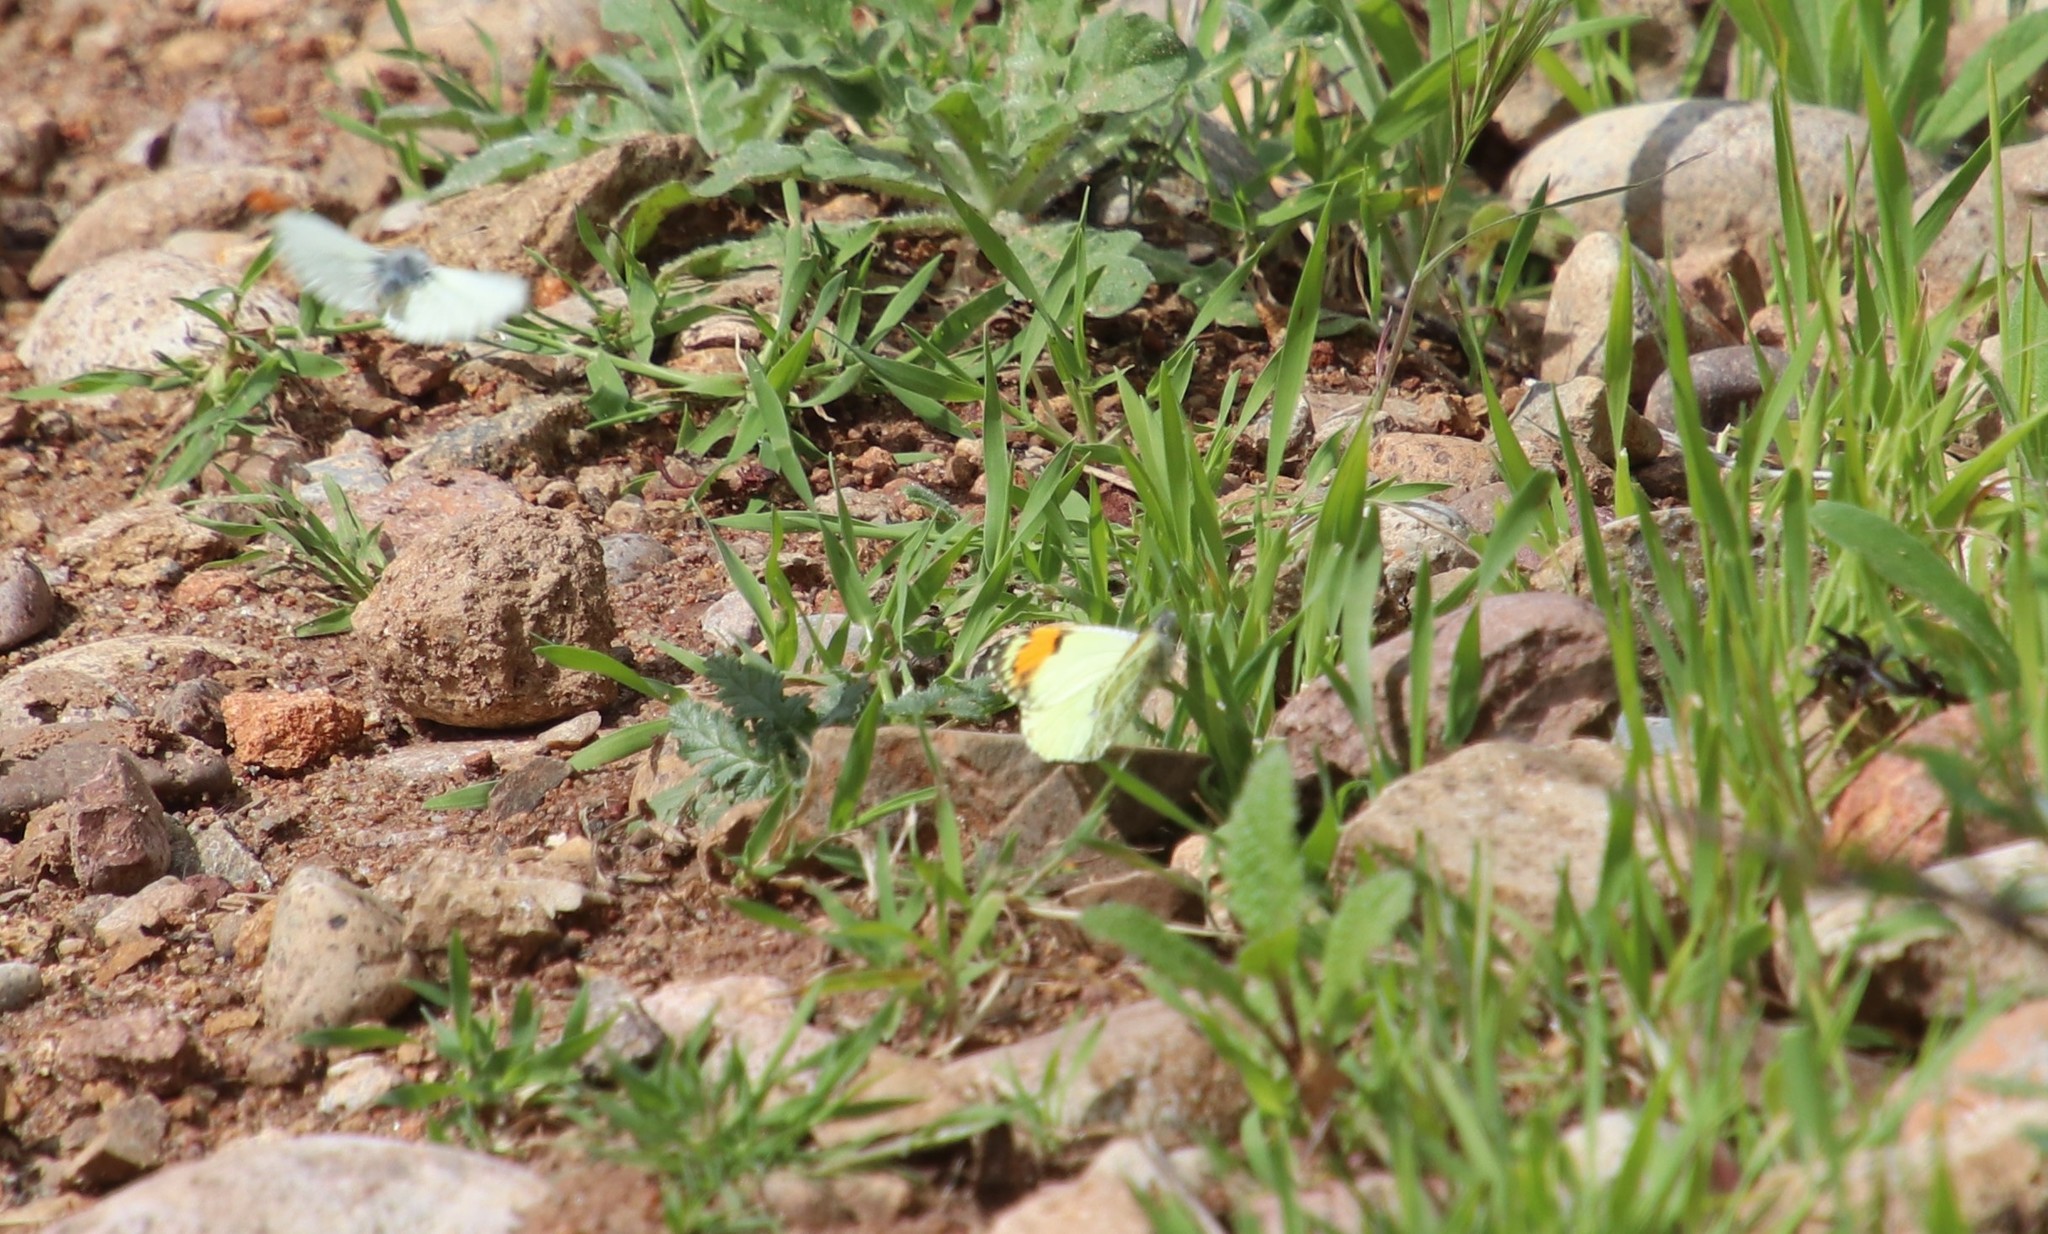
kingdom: Animalia
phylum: Arthropoda
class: Insecta
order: Lepidoptera
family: Pieridae
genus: Anthocharis
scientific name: Anthocharis sara
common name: Sara's orangetip
